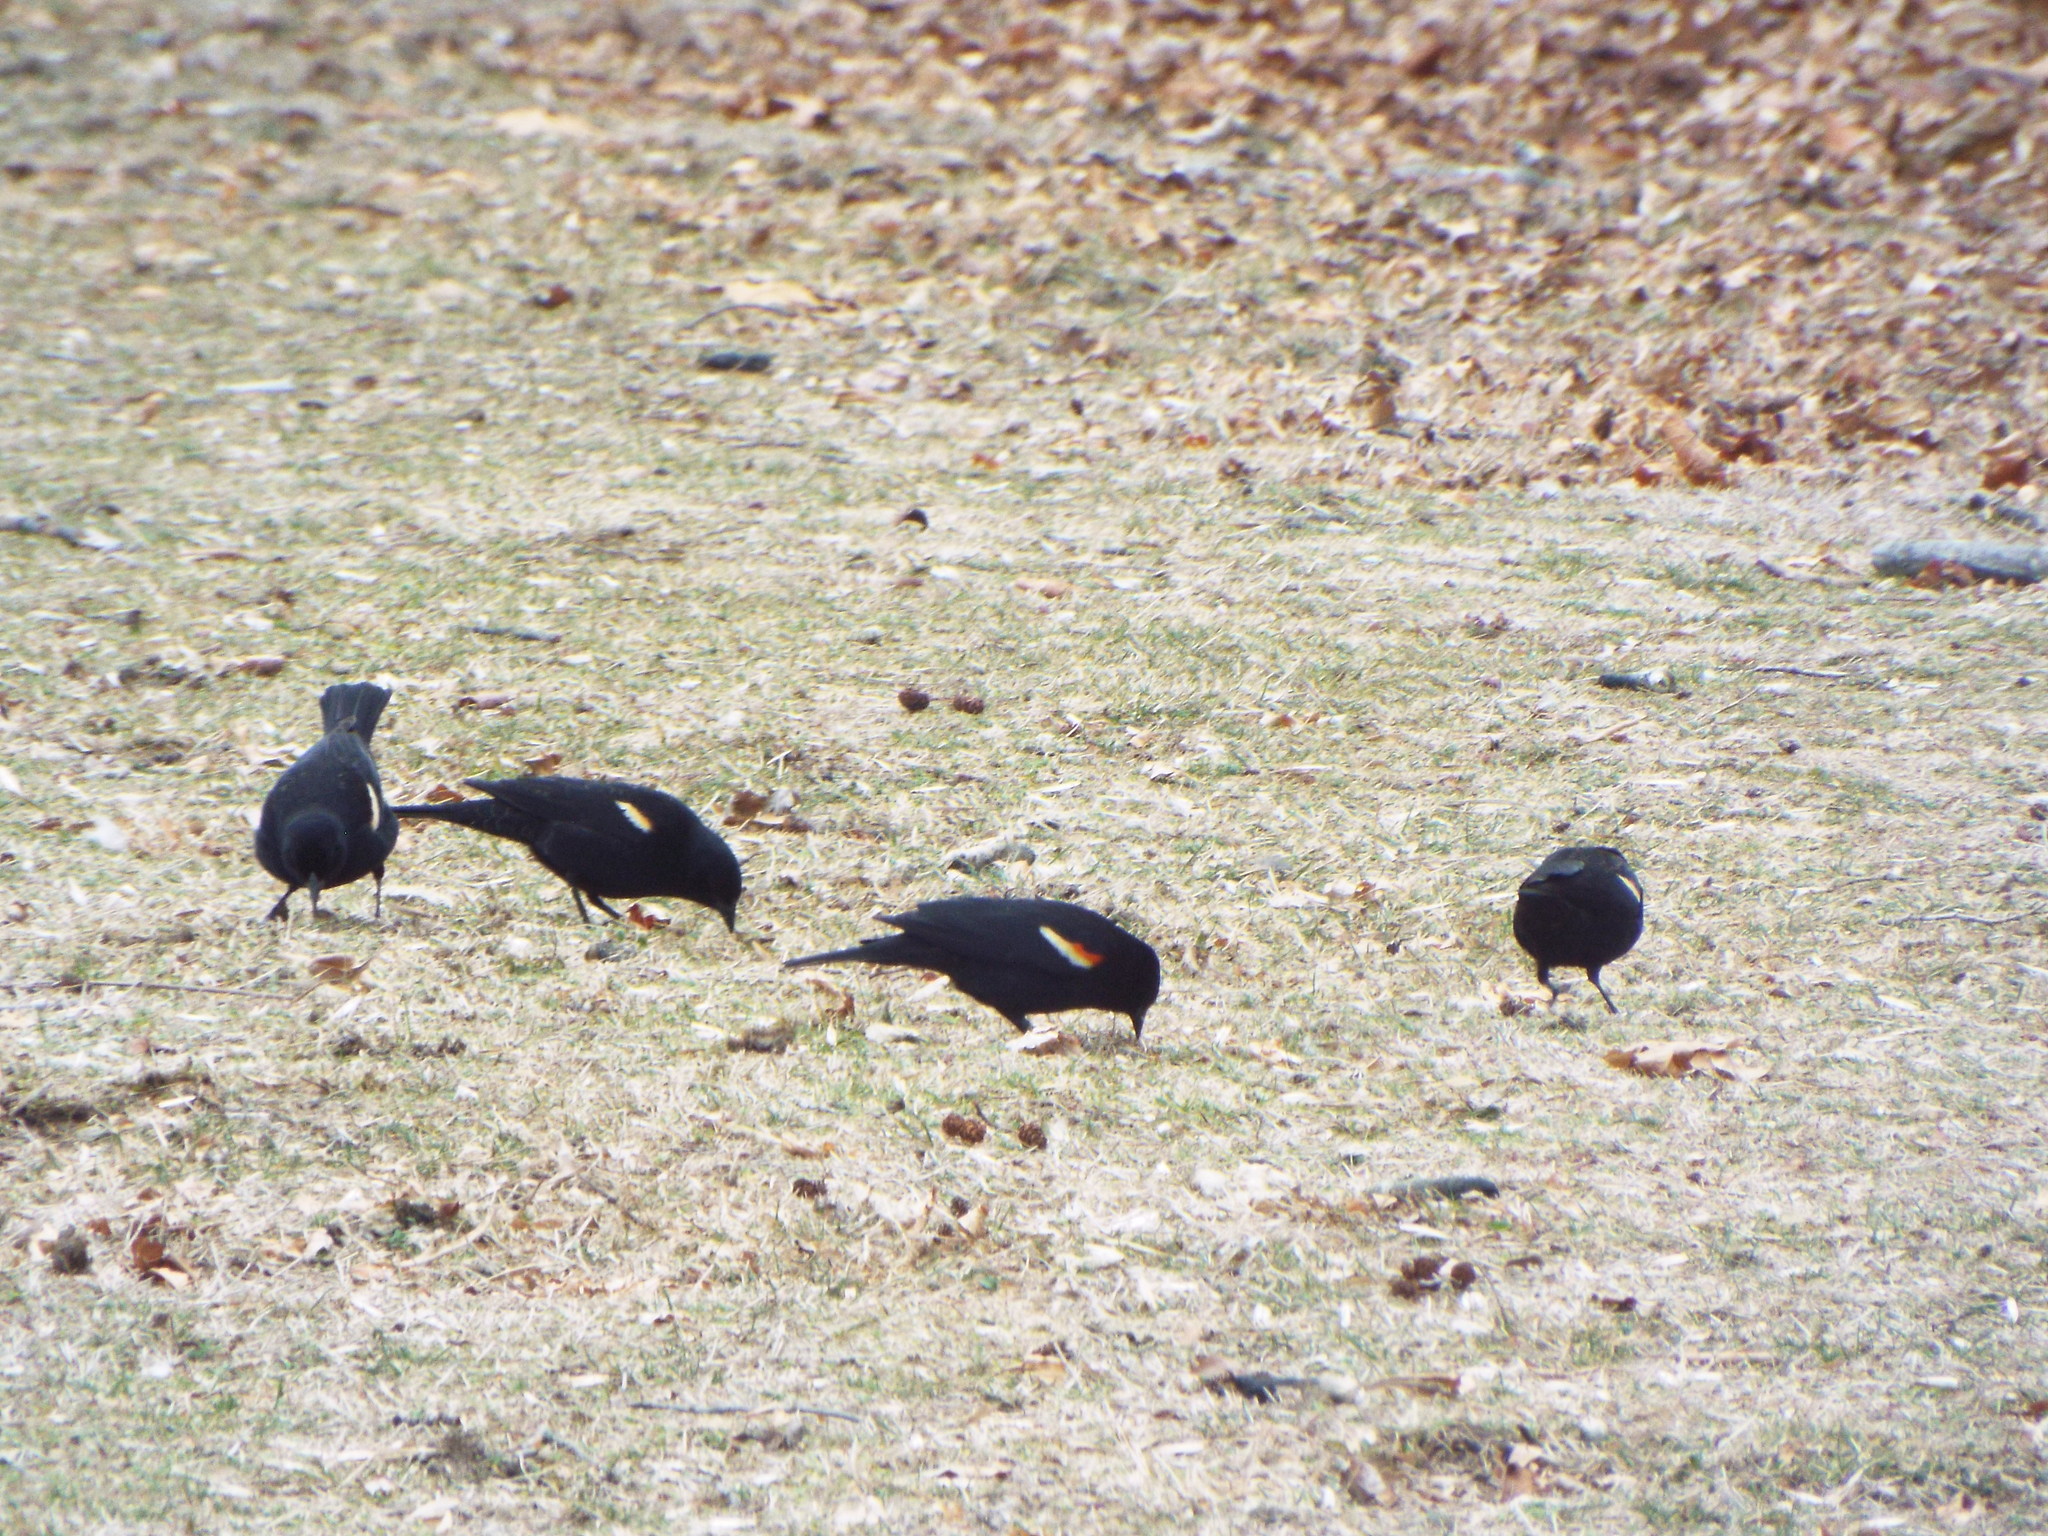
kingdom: Animalia
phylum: Chordata
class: Aves
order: Passeriformes
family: Icteridae
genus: Agelaius
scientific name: Agelaius phoeniceus
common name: Red-winged blackbird
